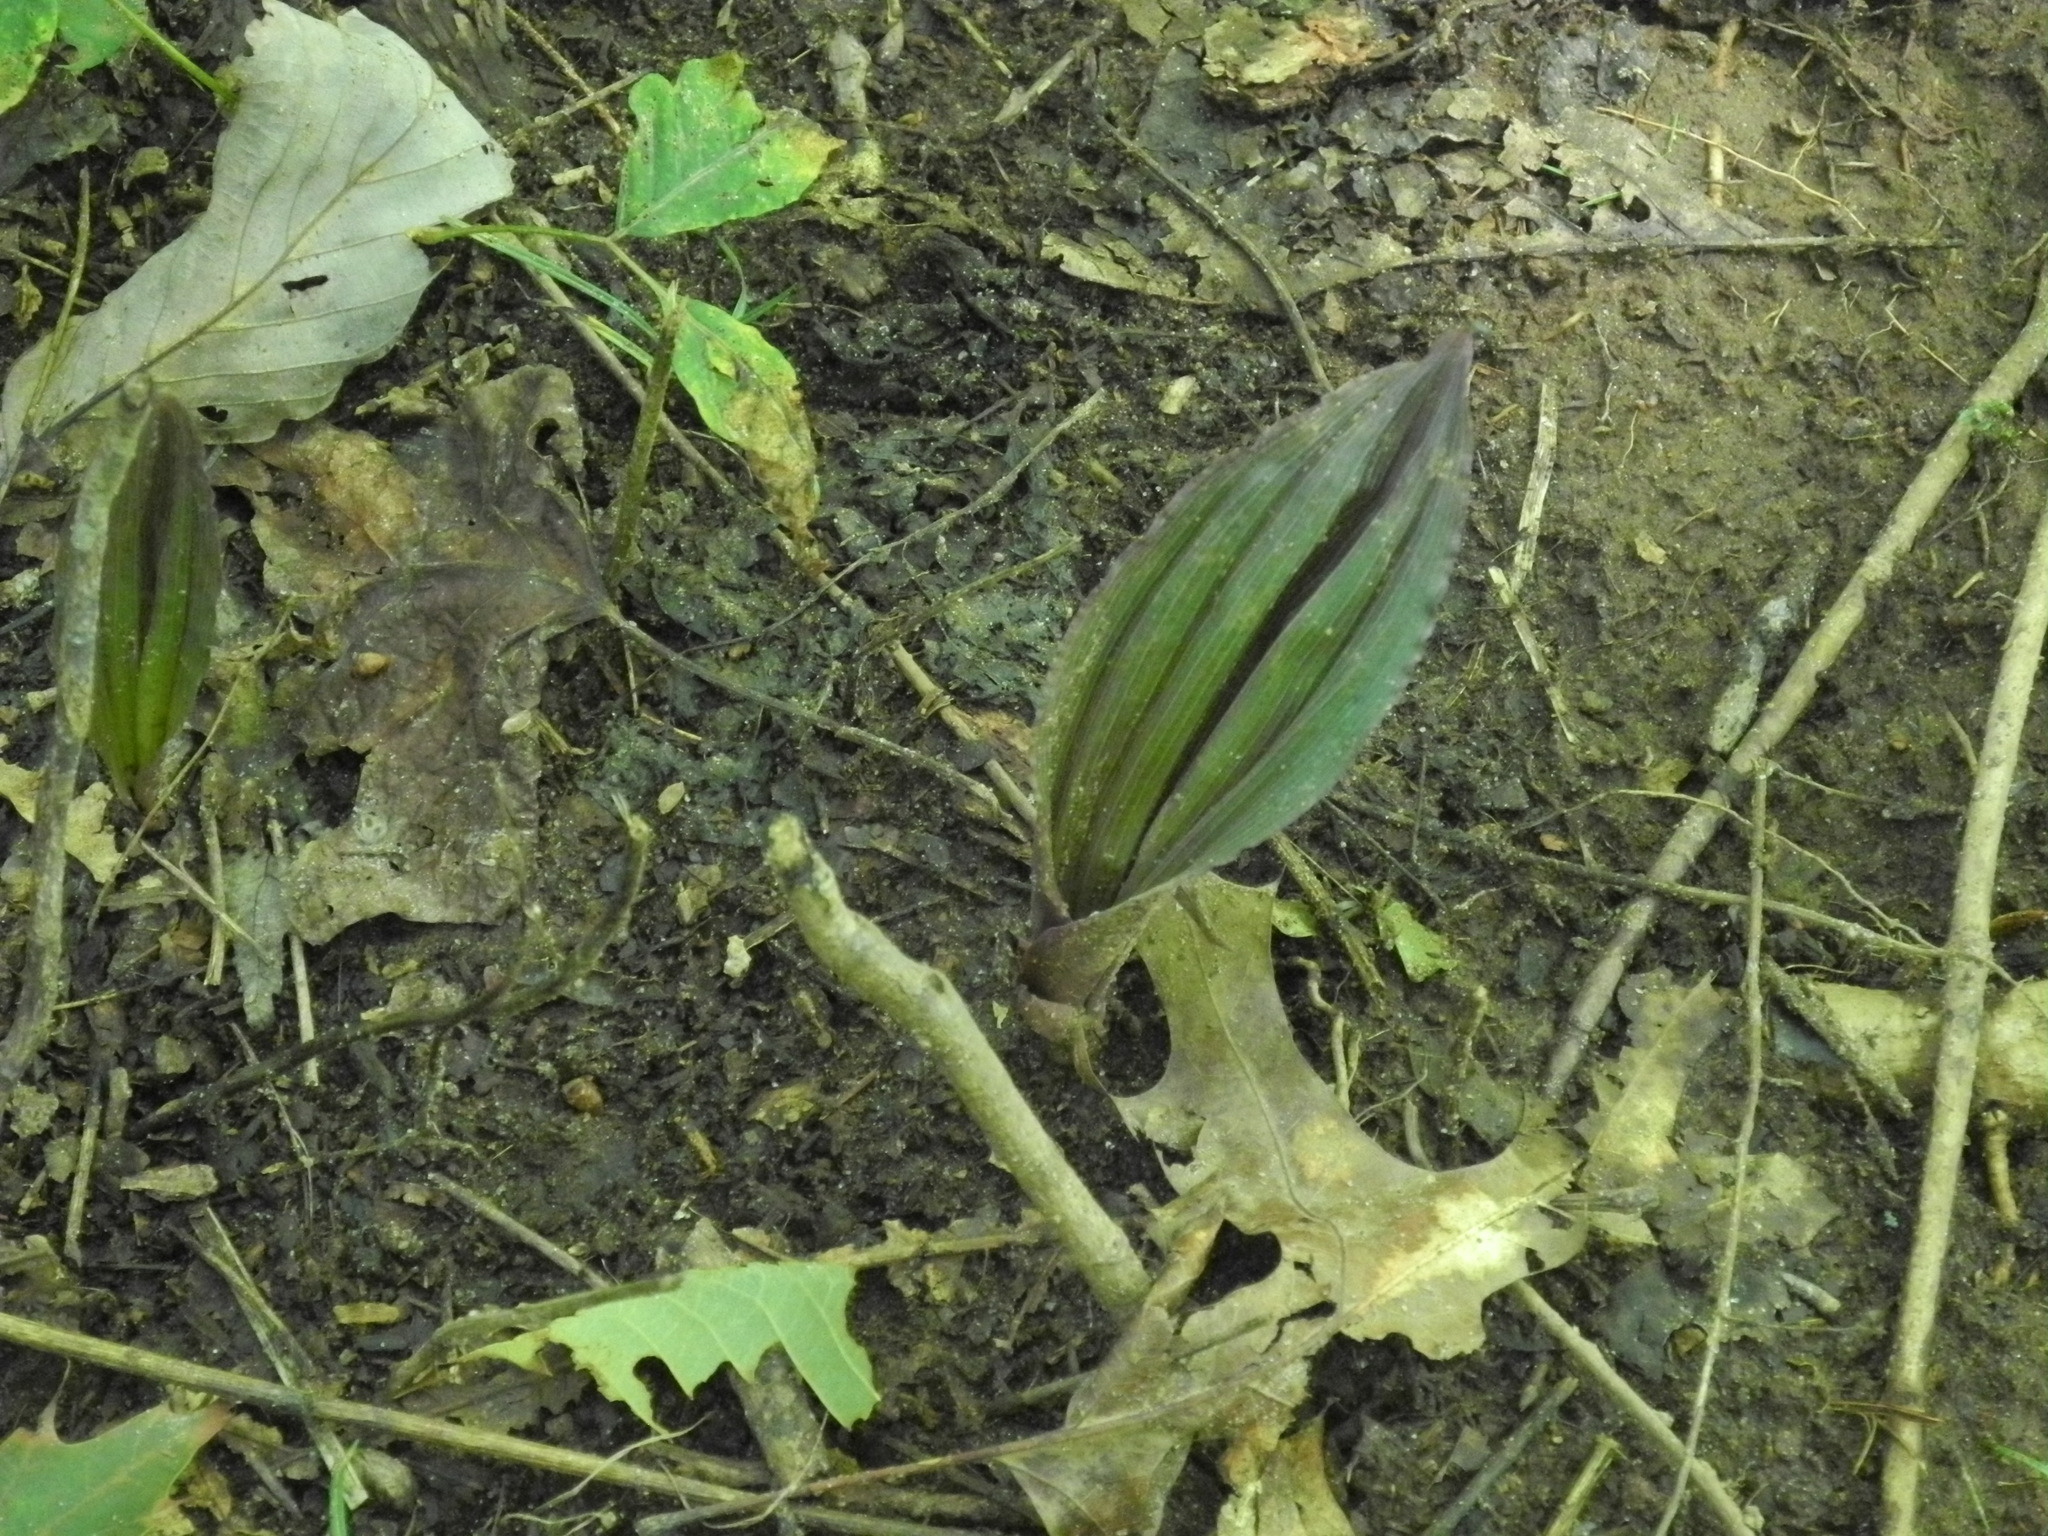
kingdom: Plantae
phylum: Tracheophyta
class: Liliopsida
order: Asparagales
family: Orchidaceae
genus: Aplectrum
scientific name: Aplectrum hyemale
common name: Adam-and-eve
